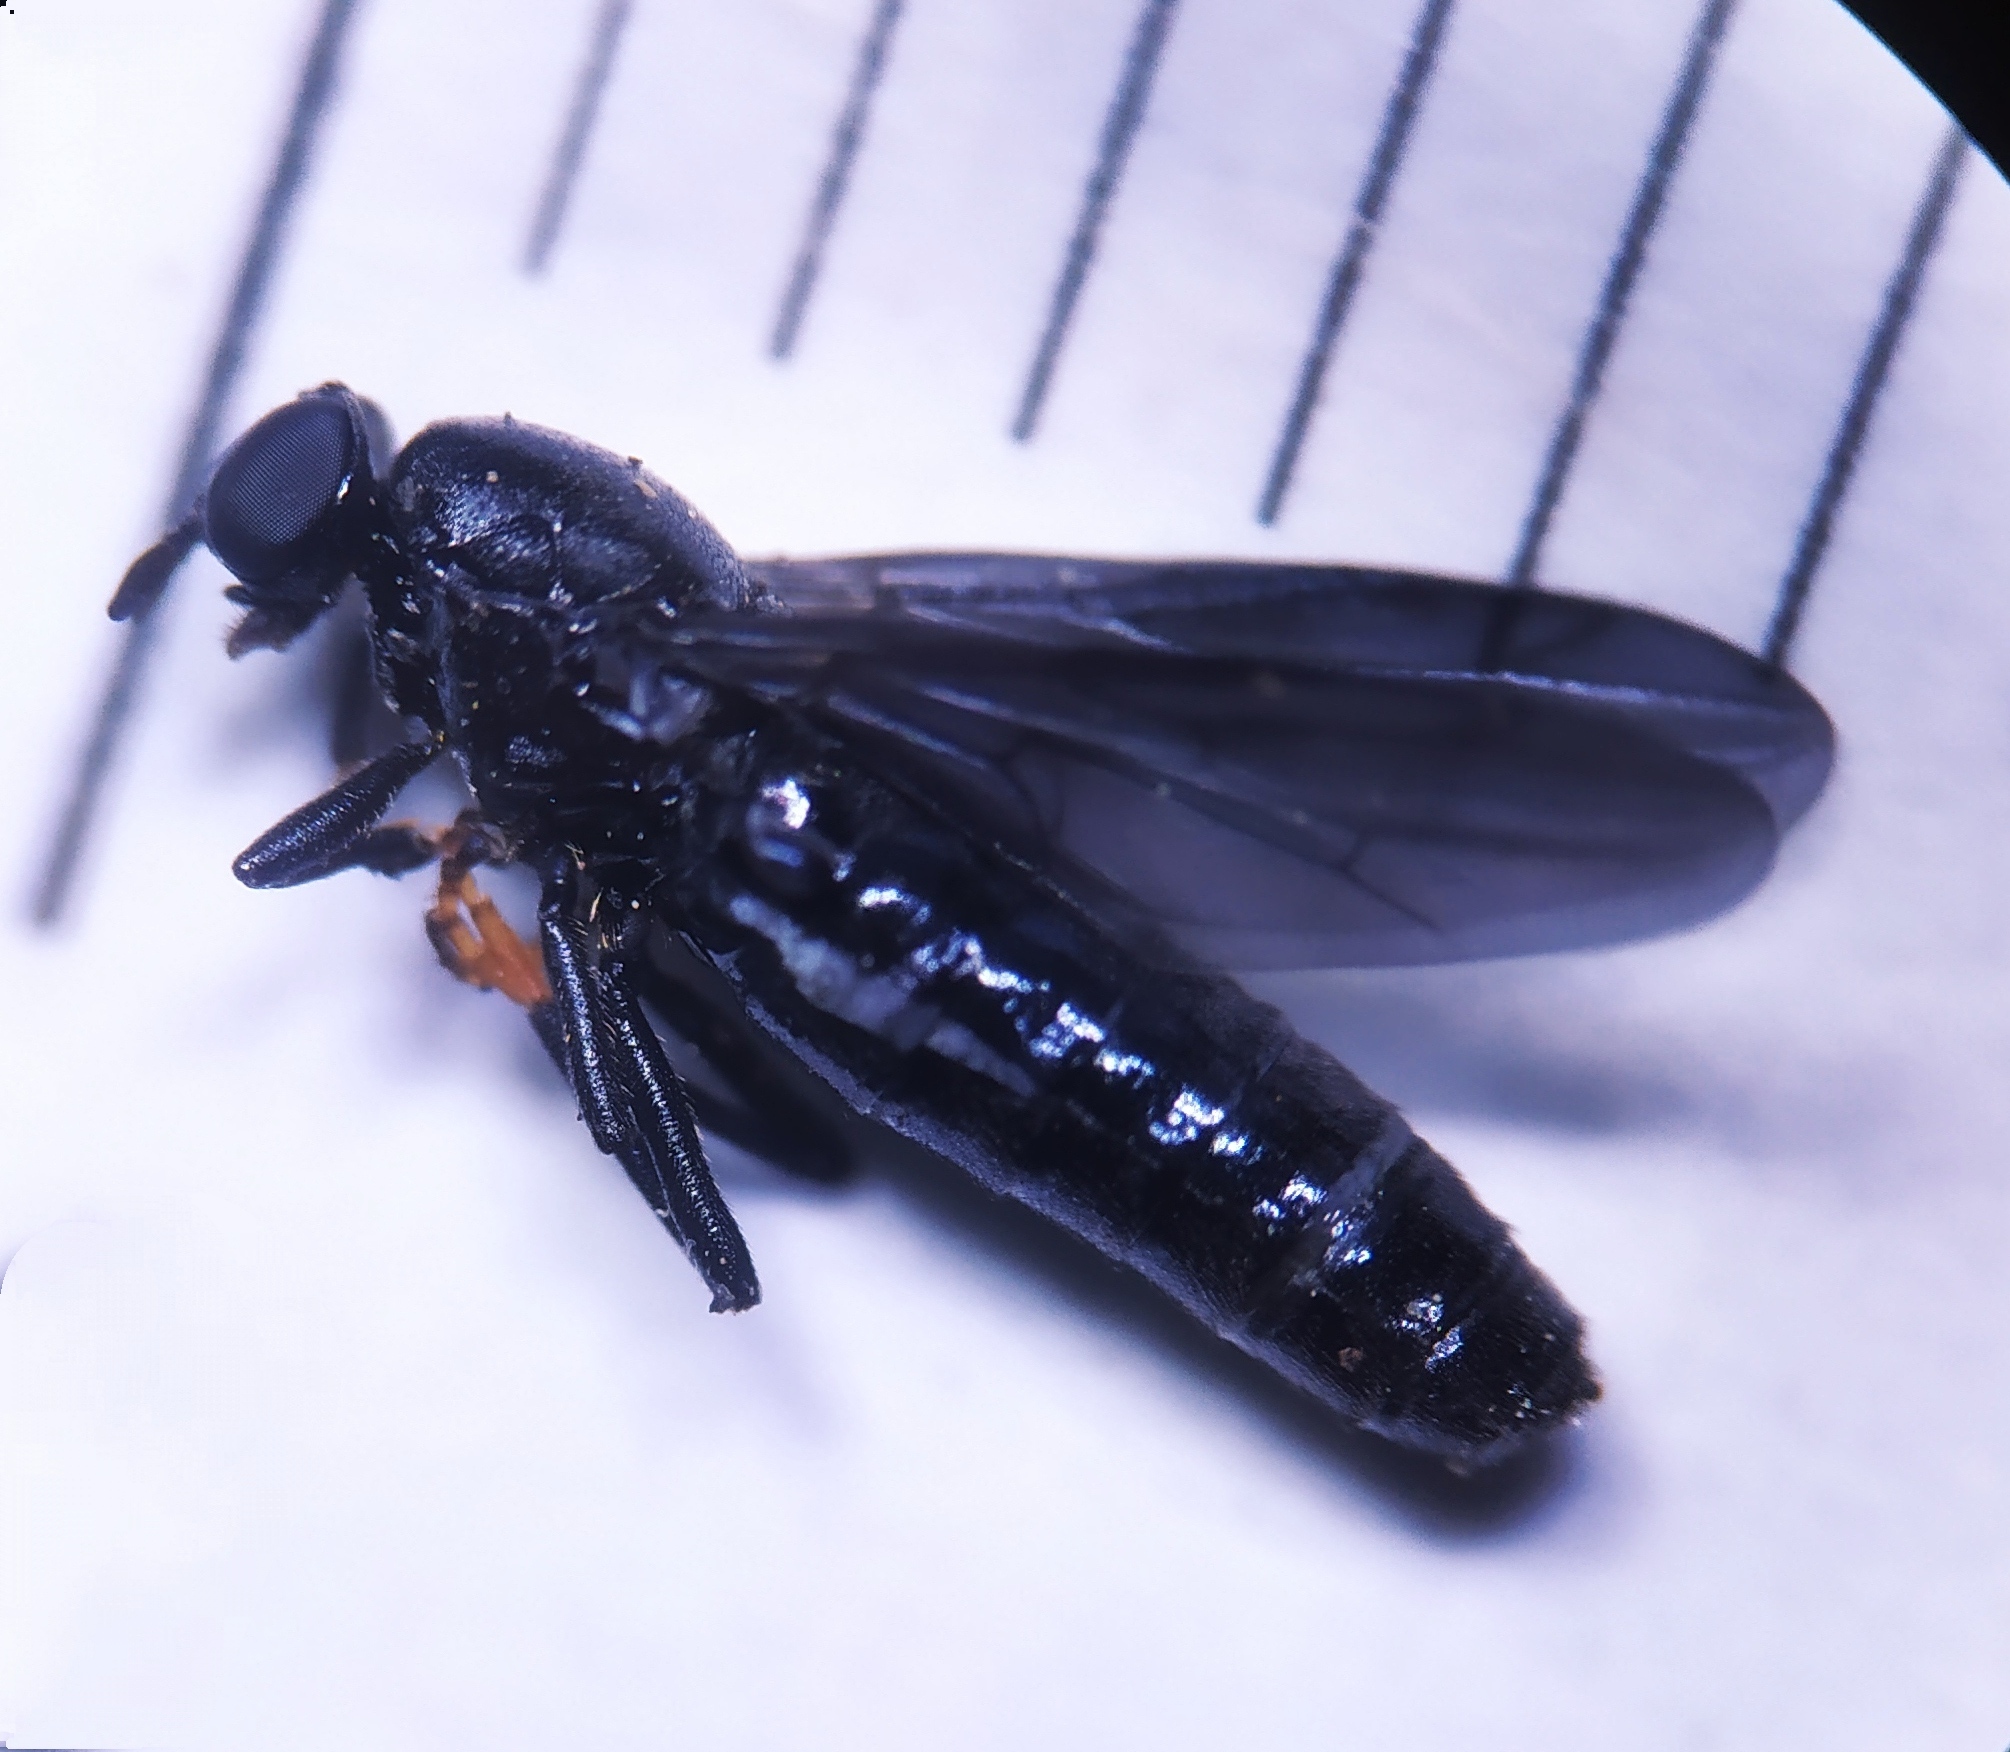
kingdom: Animalia
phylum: Arthropoda
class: Insecta
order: Diptera
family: Scenopinidae
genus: Scenopinus
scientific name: Scenopinus niger
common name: Forest windowfly
